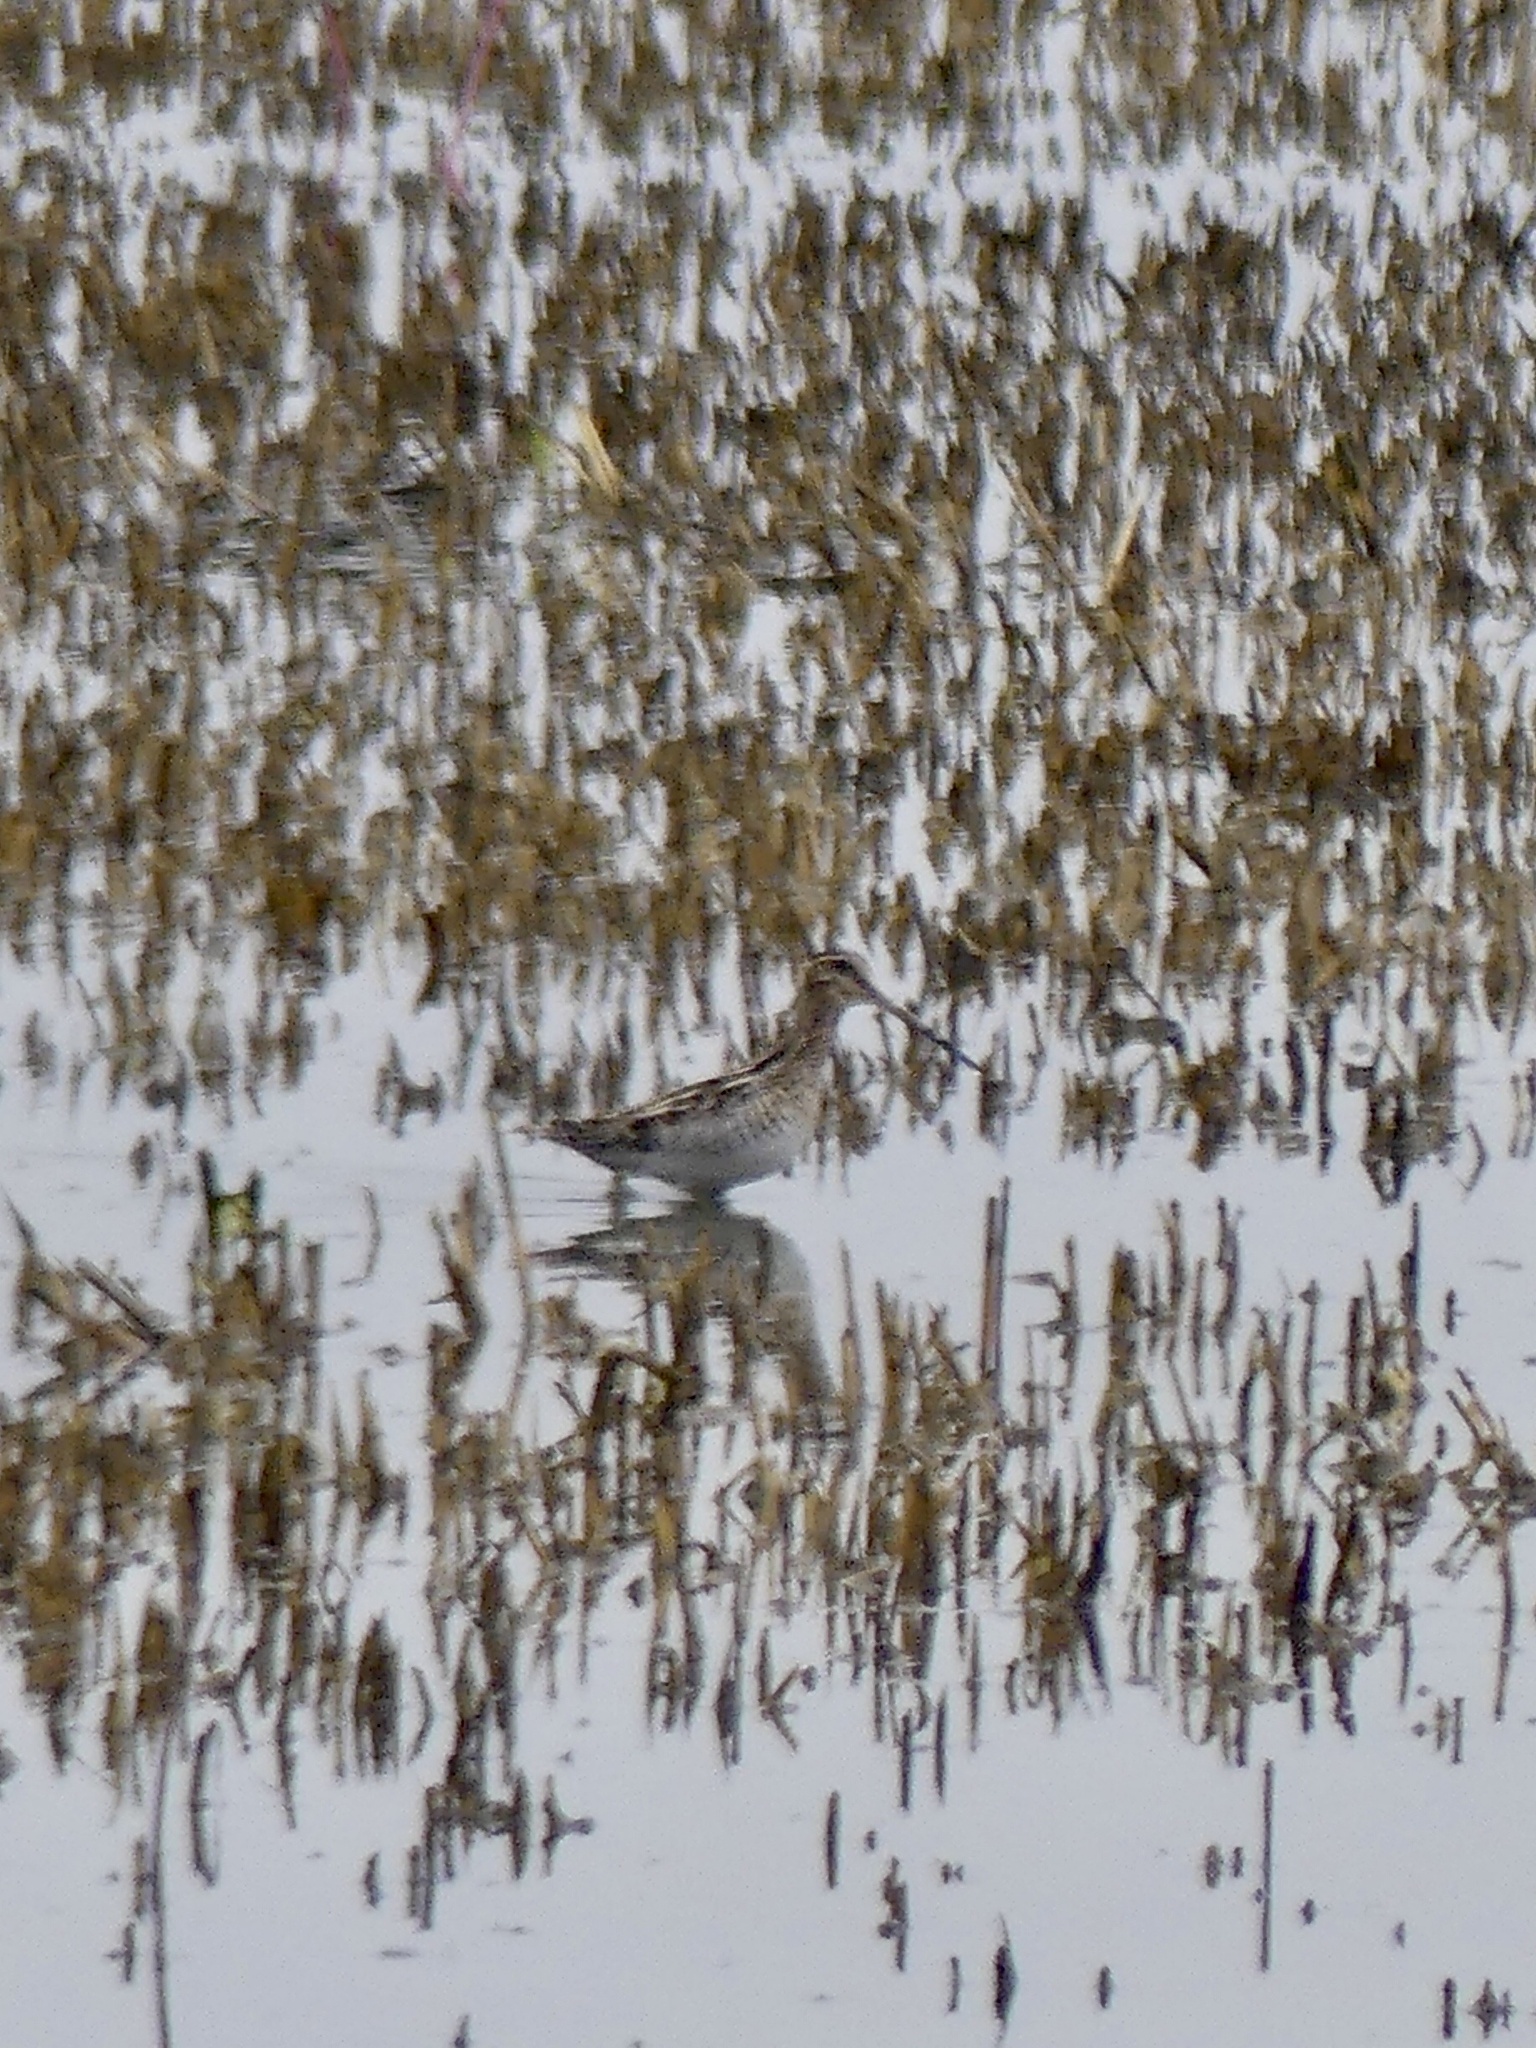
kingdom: Animalia
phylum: Chordata
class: Aves
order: Charadriiformes
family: Scolopacidae
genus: Gallinago
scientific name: Gallinago delicata
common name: Wilson's snipe
